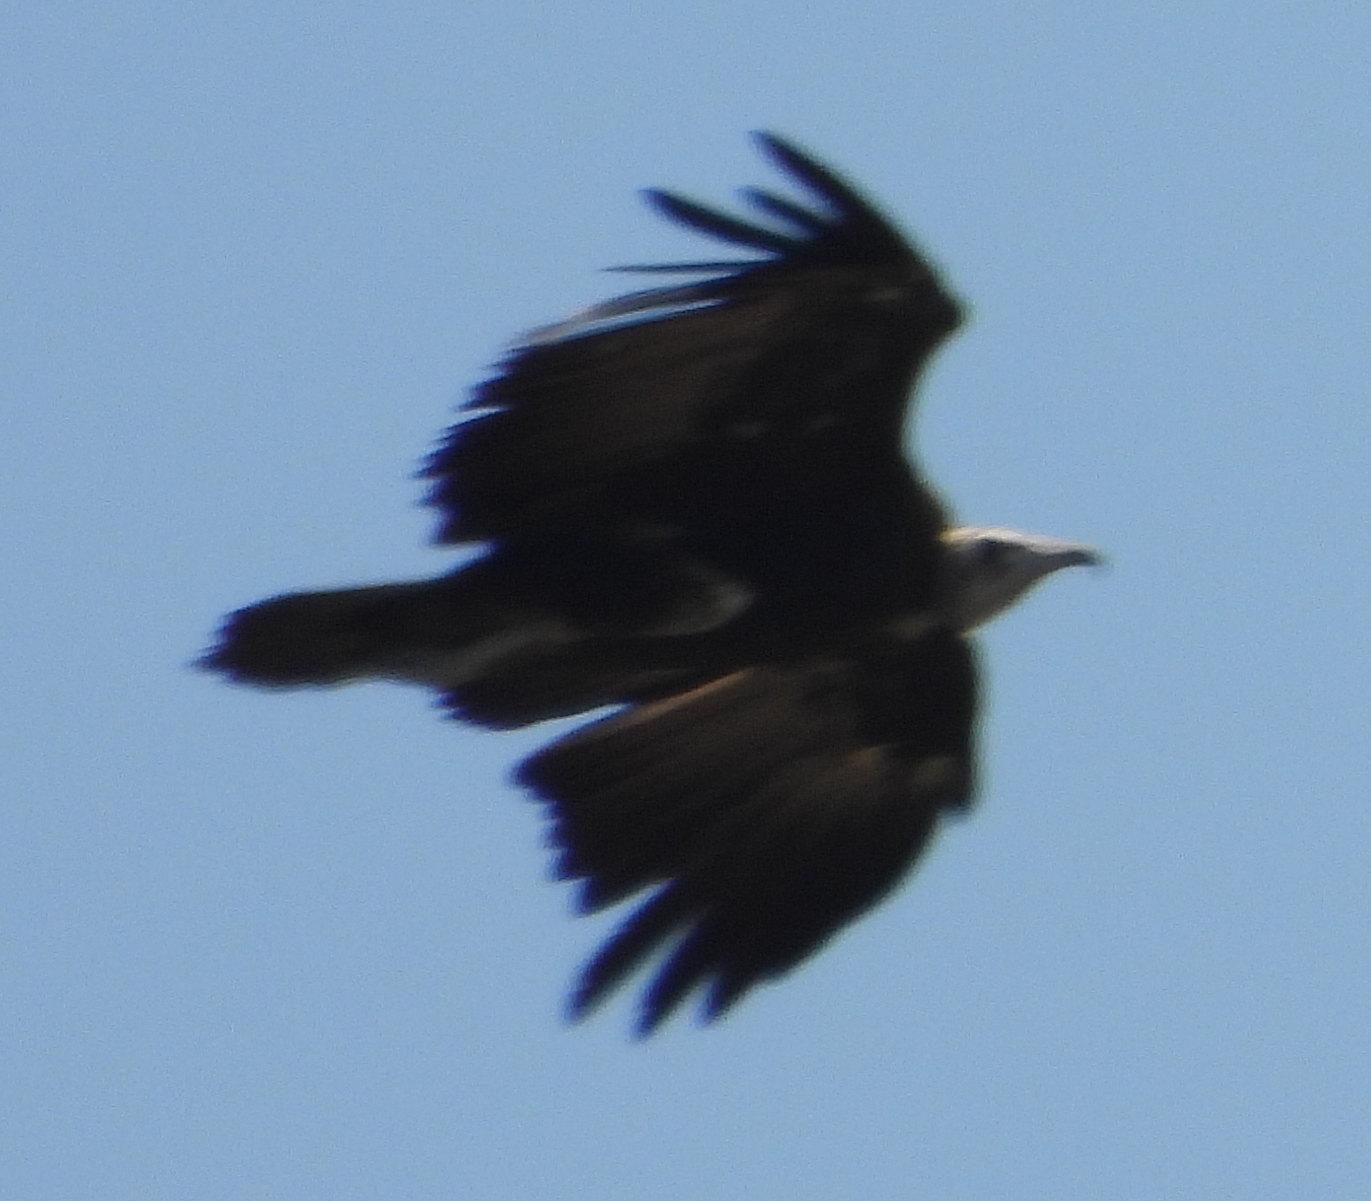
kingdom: Animalia
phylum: Chordata
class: Aves
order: Accipitriformes
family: Accipitridae
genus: Necrosyrtes
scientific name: Necrosyrtes monachus
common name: Hooded vulture
